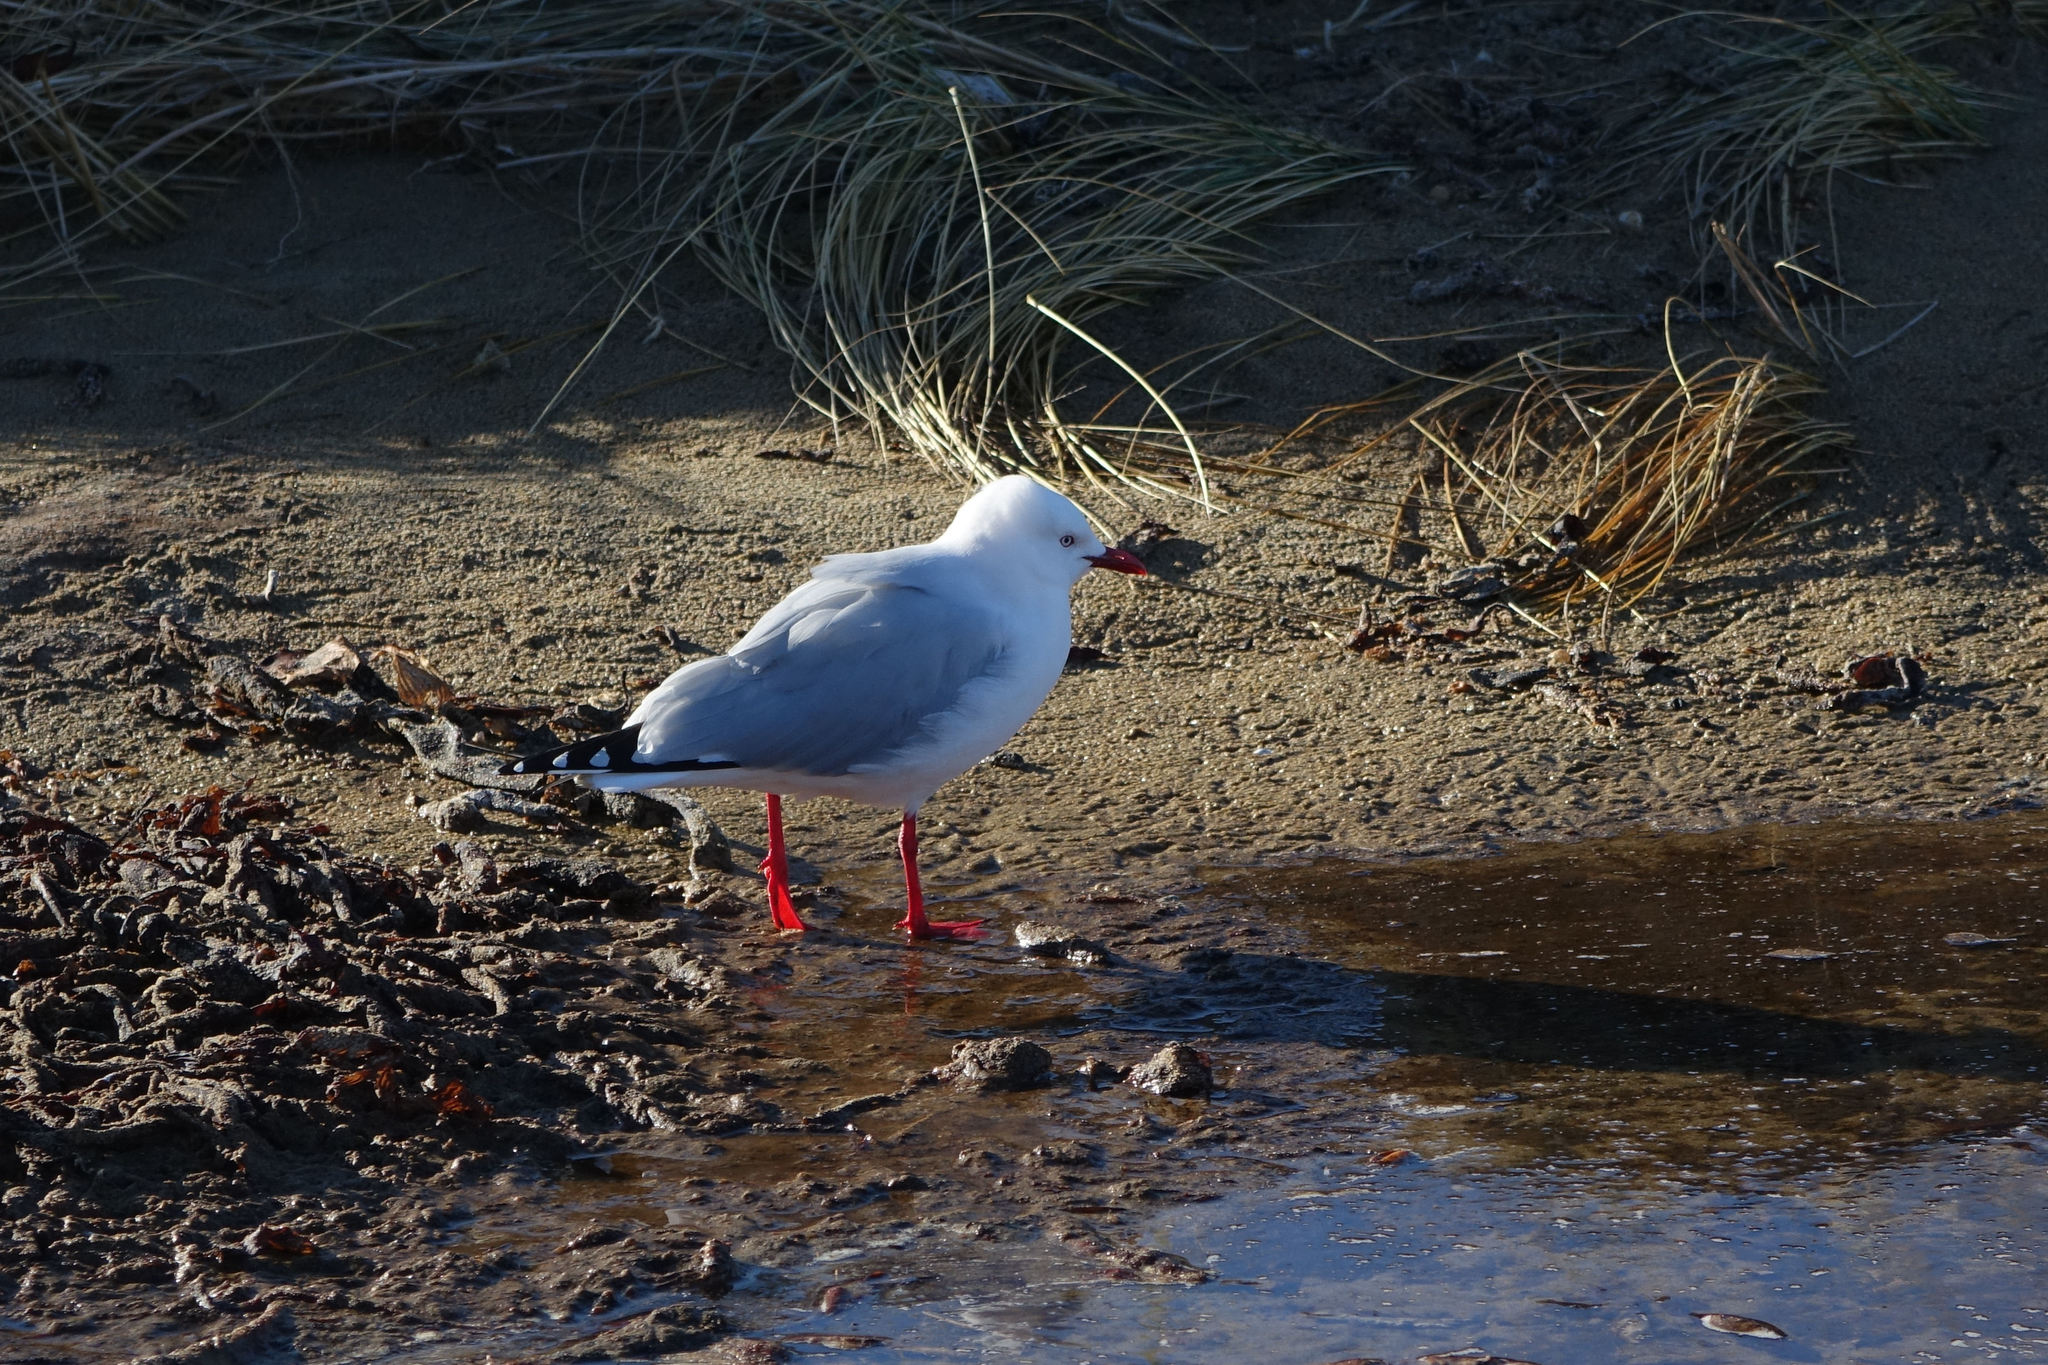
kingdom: Animalia
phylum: Chordata
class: Aves
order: Charadriiformes
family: Laridae
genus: Chroicocephalus
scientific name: Chroicocephalus novaehollandiae
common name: Silver gull
